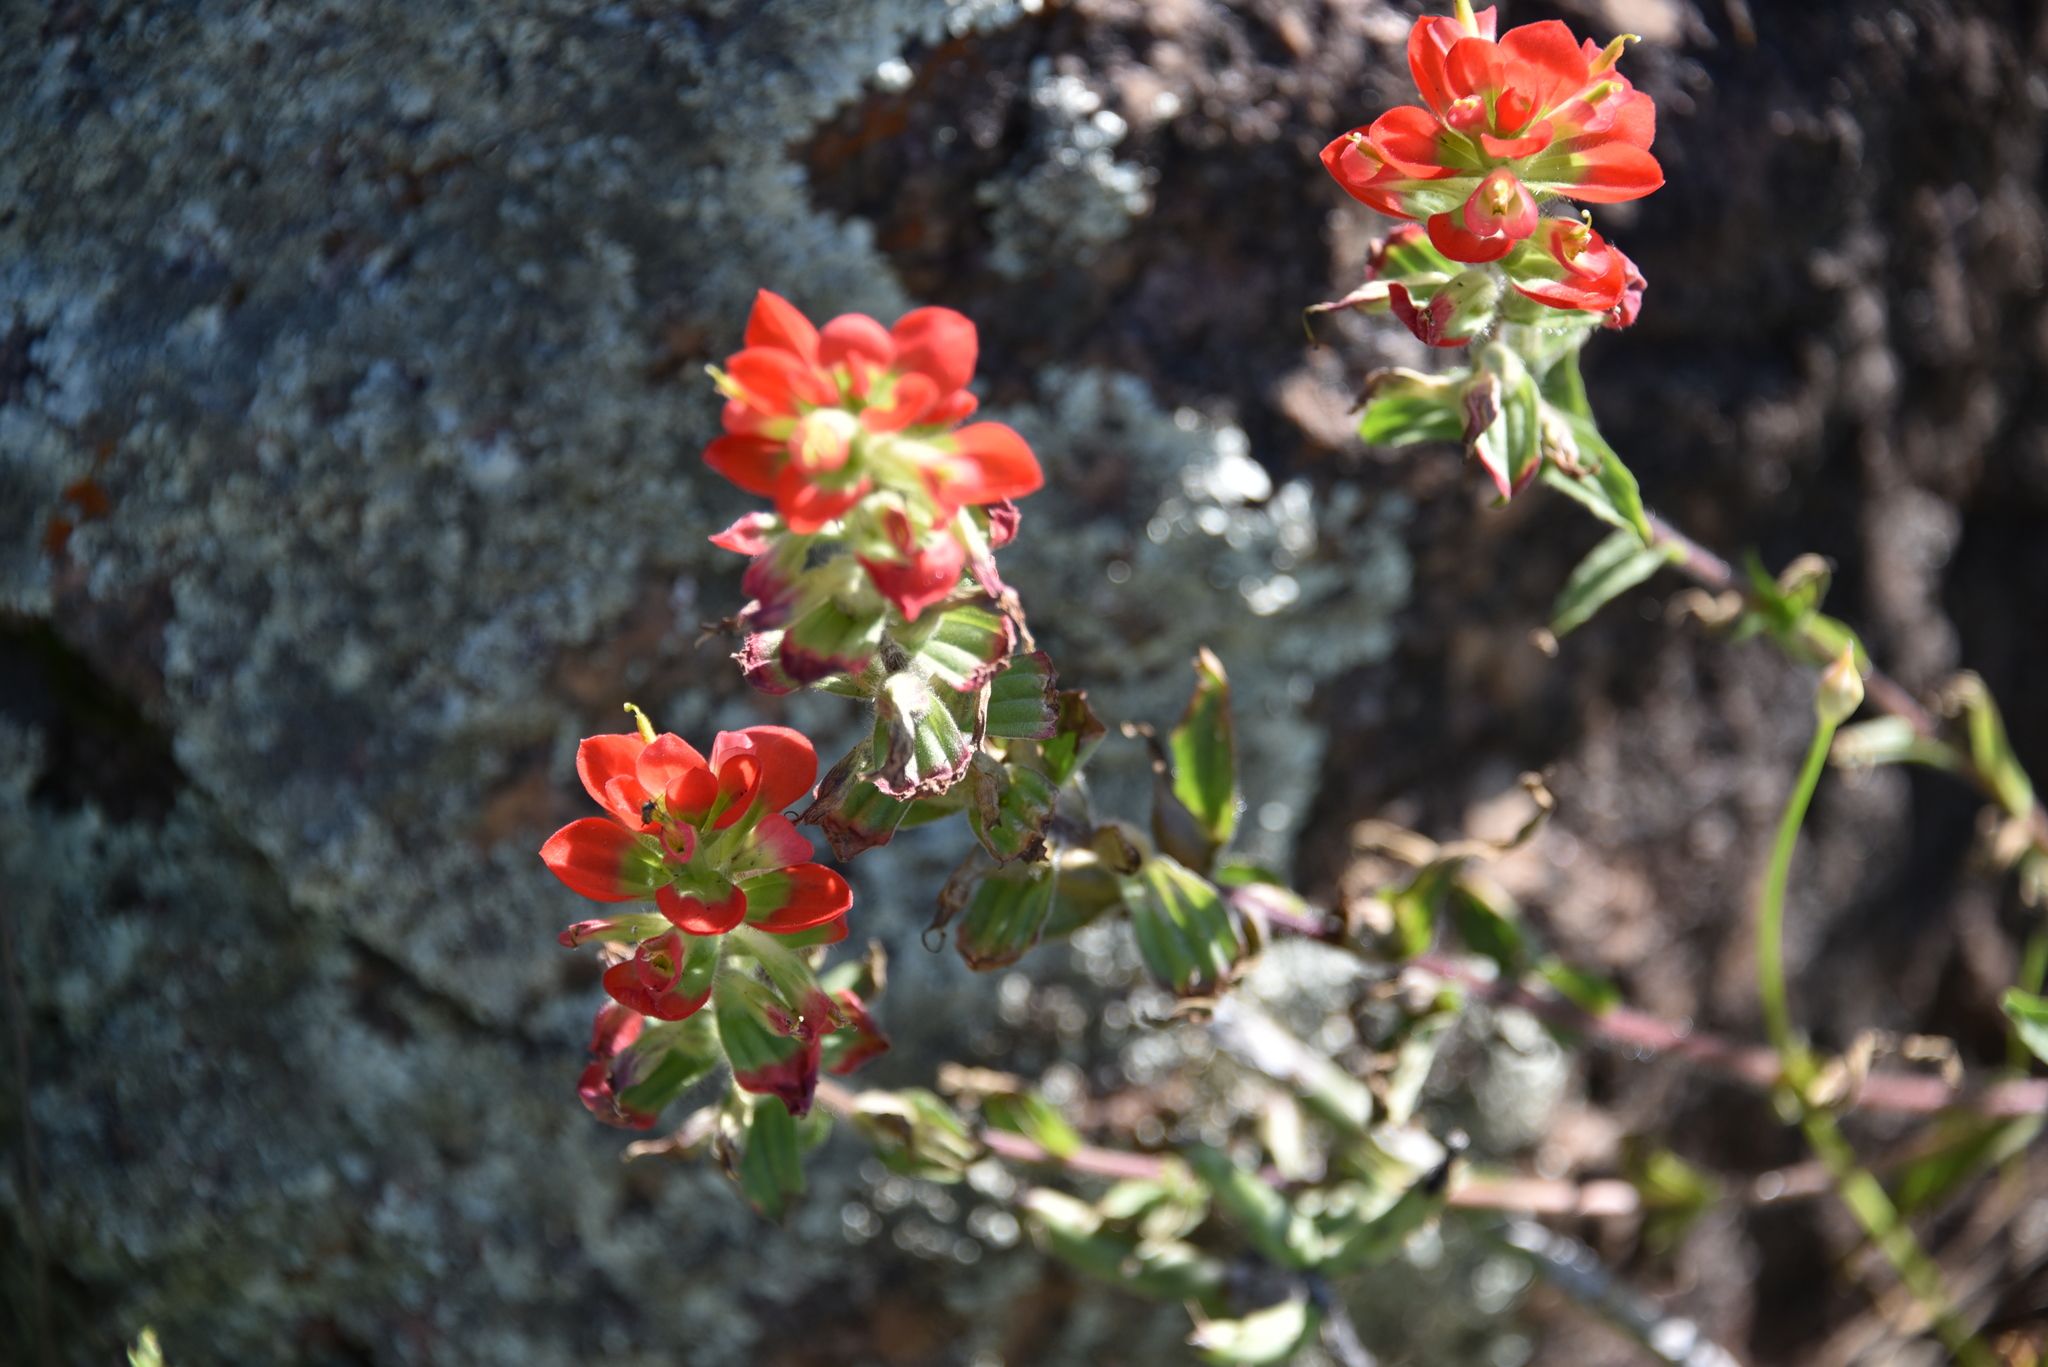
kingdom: Plantae
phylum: Tracheophyta
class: Magnoliopsida
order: Lamiales
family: Orobanchaceae
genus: Castilleja
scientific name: Castilleja indivisa
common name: Texas paintbrush
